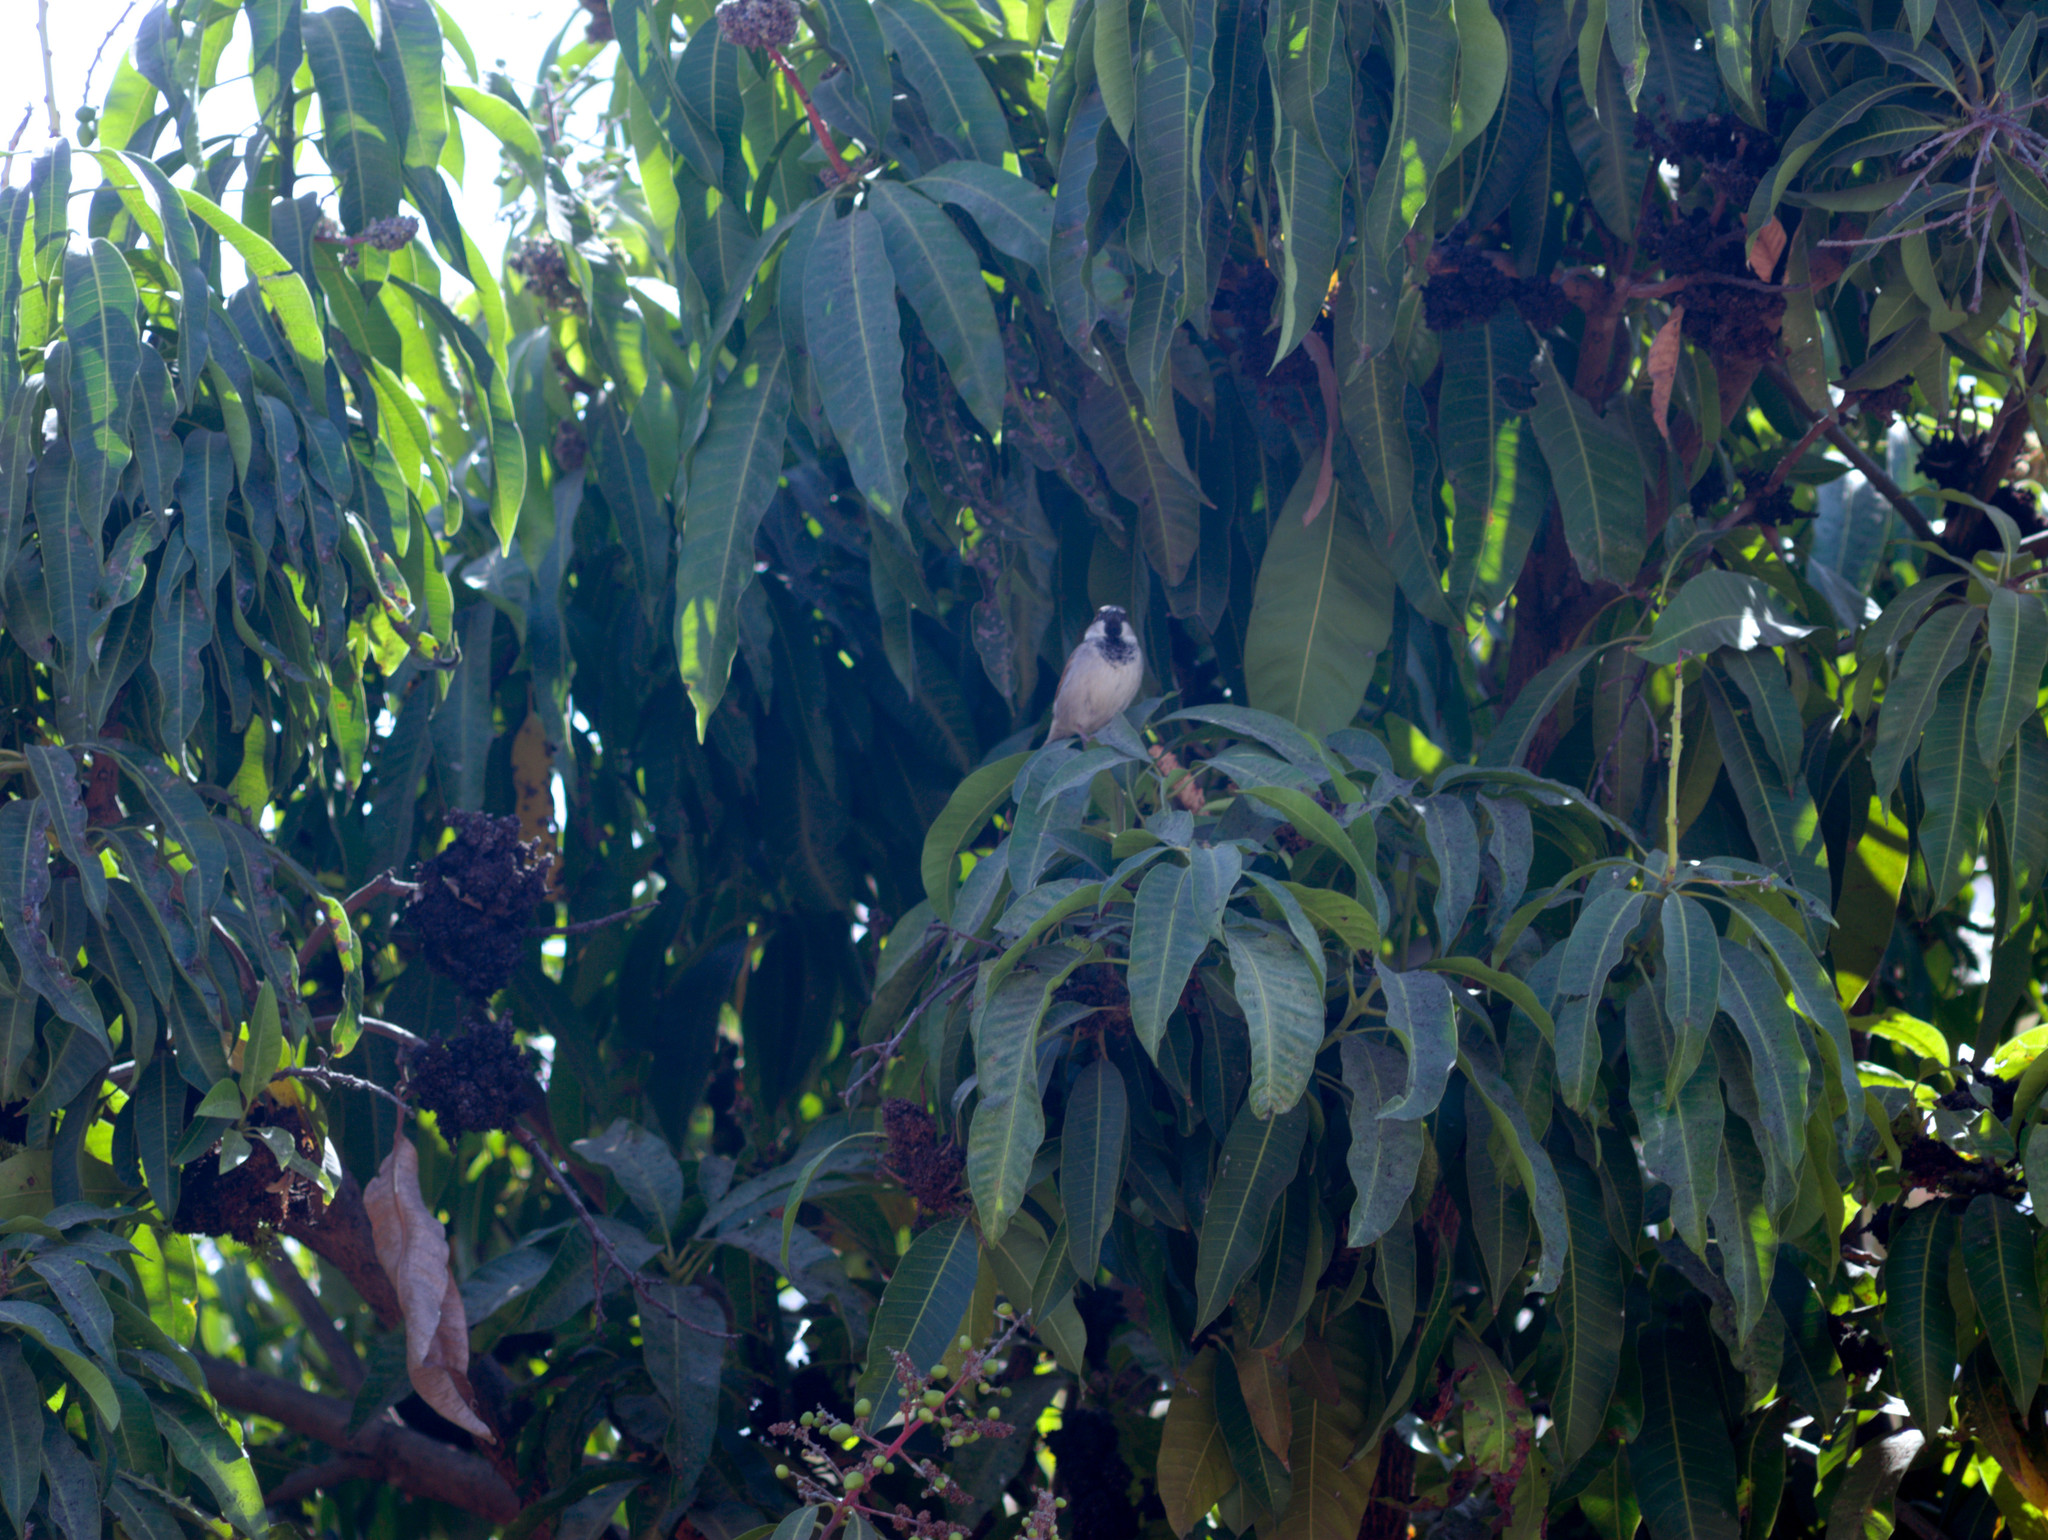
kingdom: Animalia
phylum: Chordata
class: Aves
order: Passeriformes
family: Passeridae
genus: Passer
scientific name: Passer domesticus
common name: House sparrow
